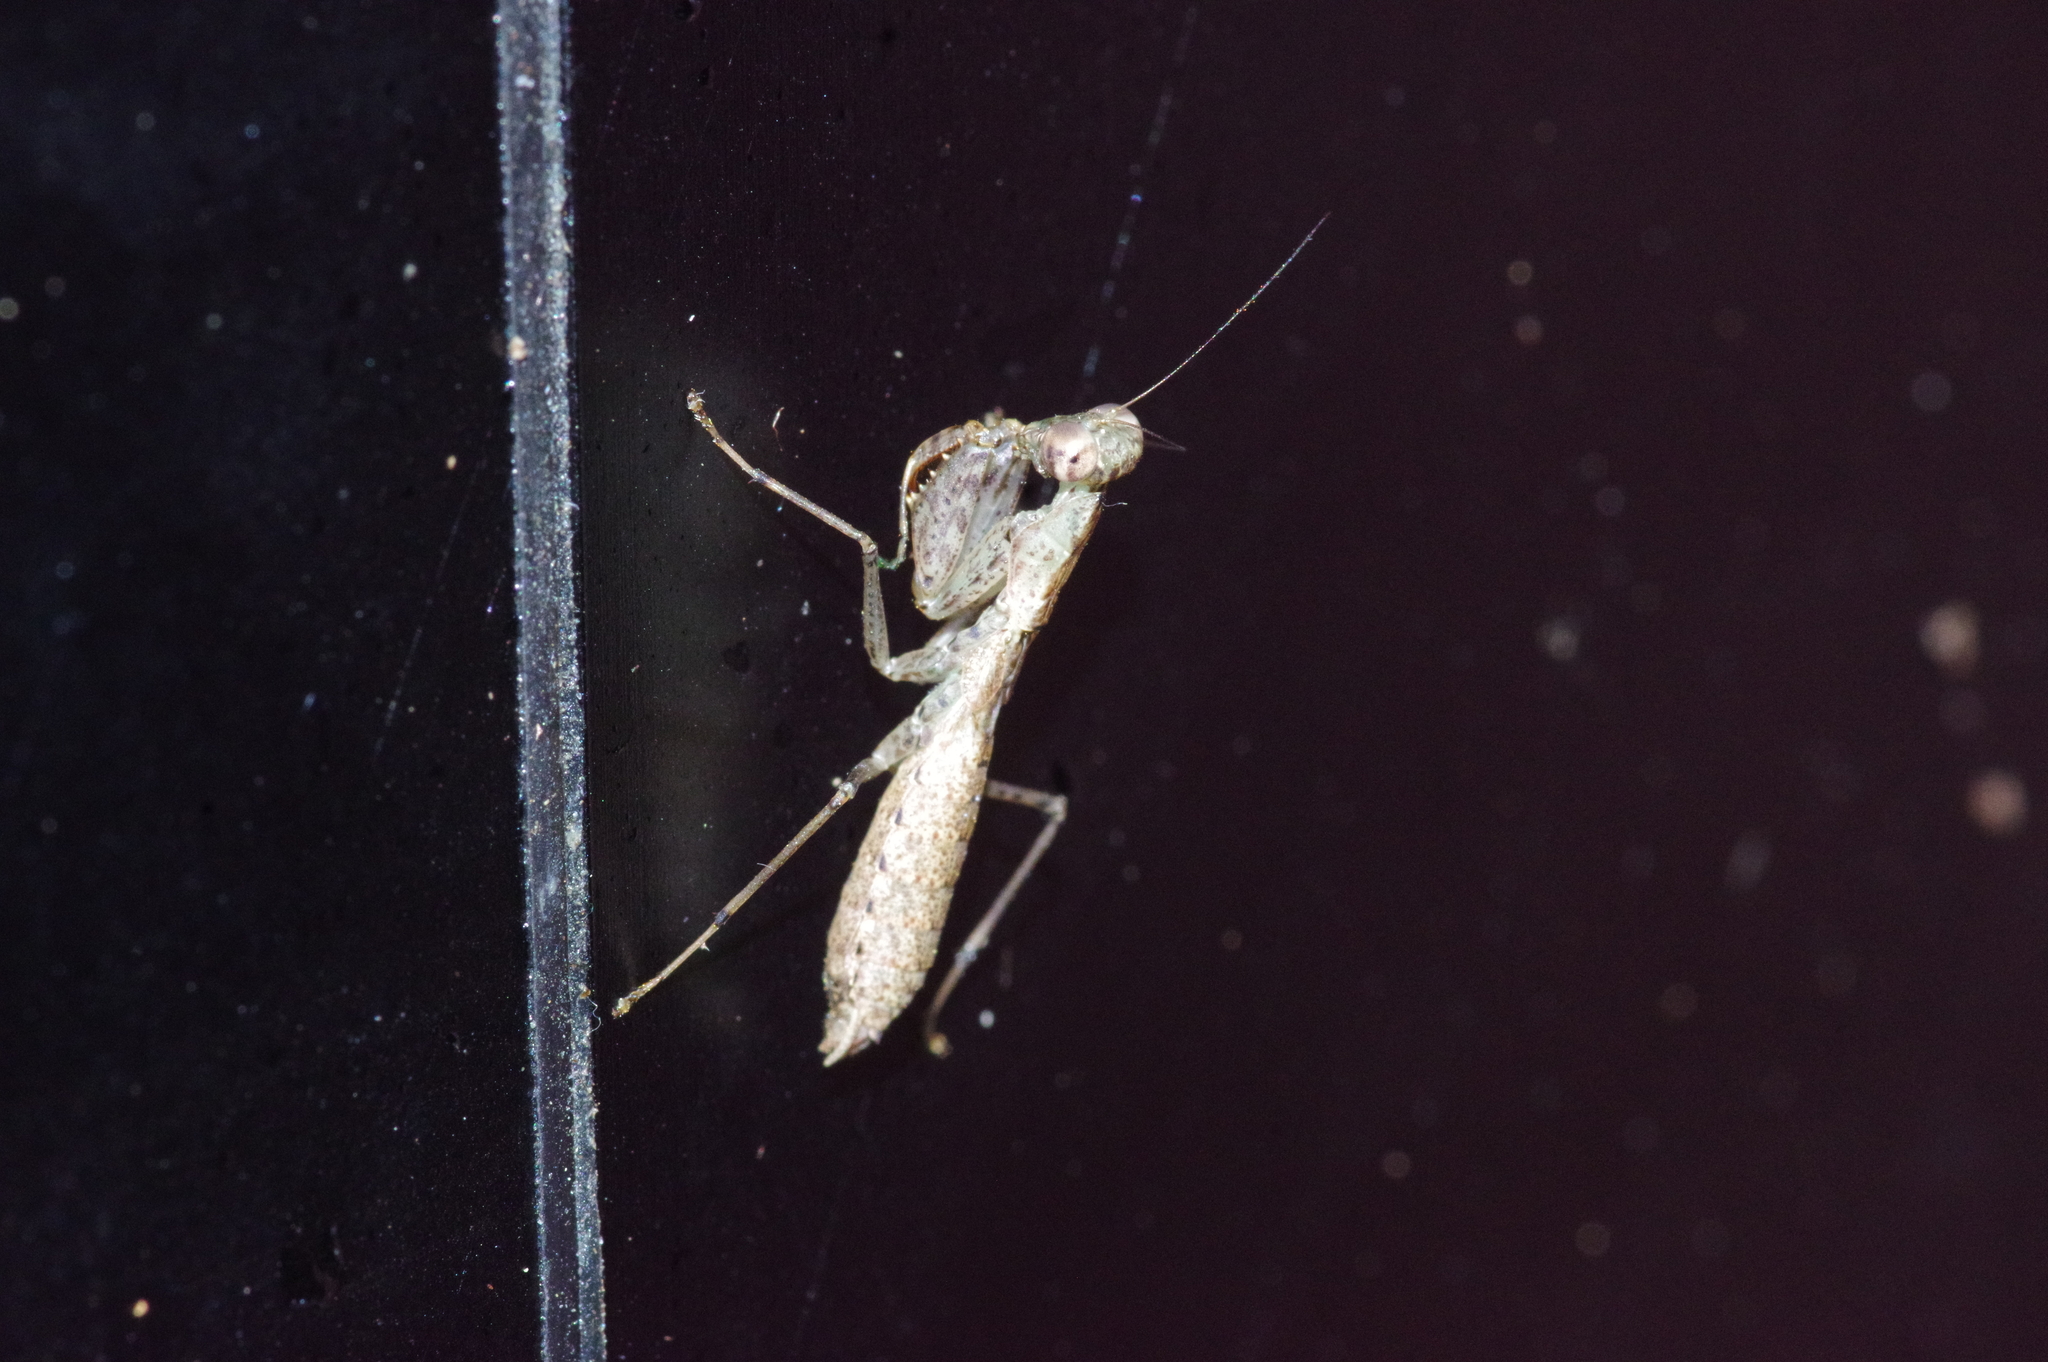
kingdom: Animalia
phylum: Arthropoda
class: Insecta
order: Mantodea
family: Gonypetidae
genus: Amantis
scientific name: Amantis nawai
